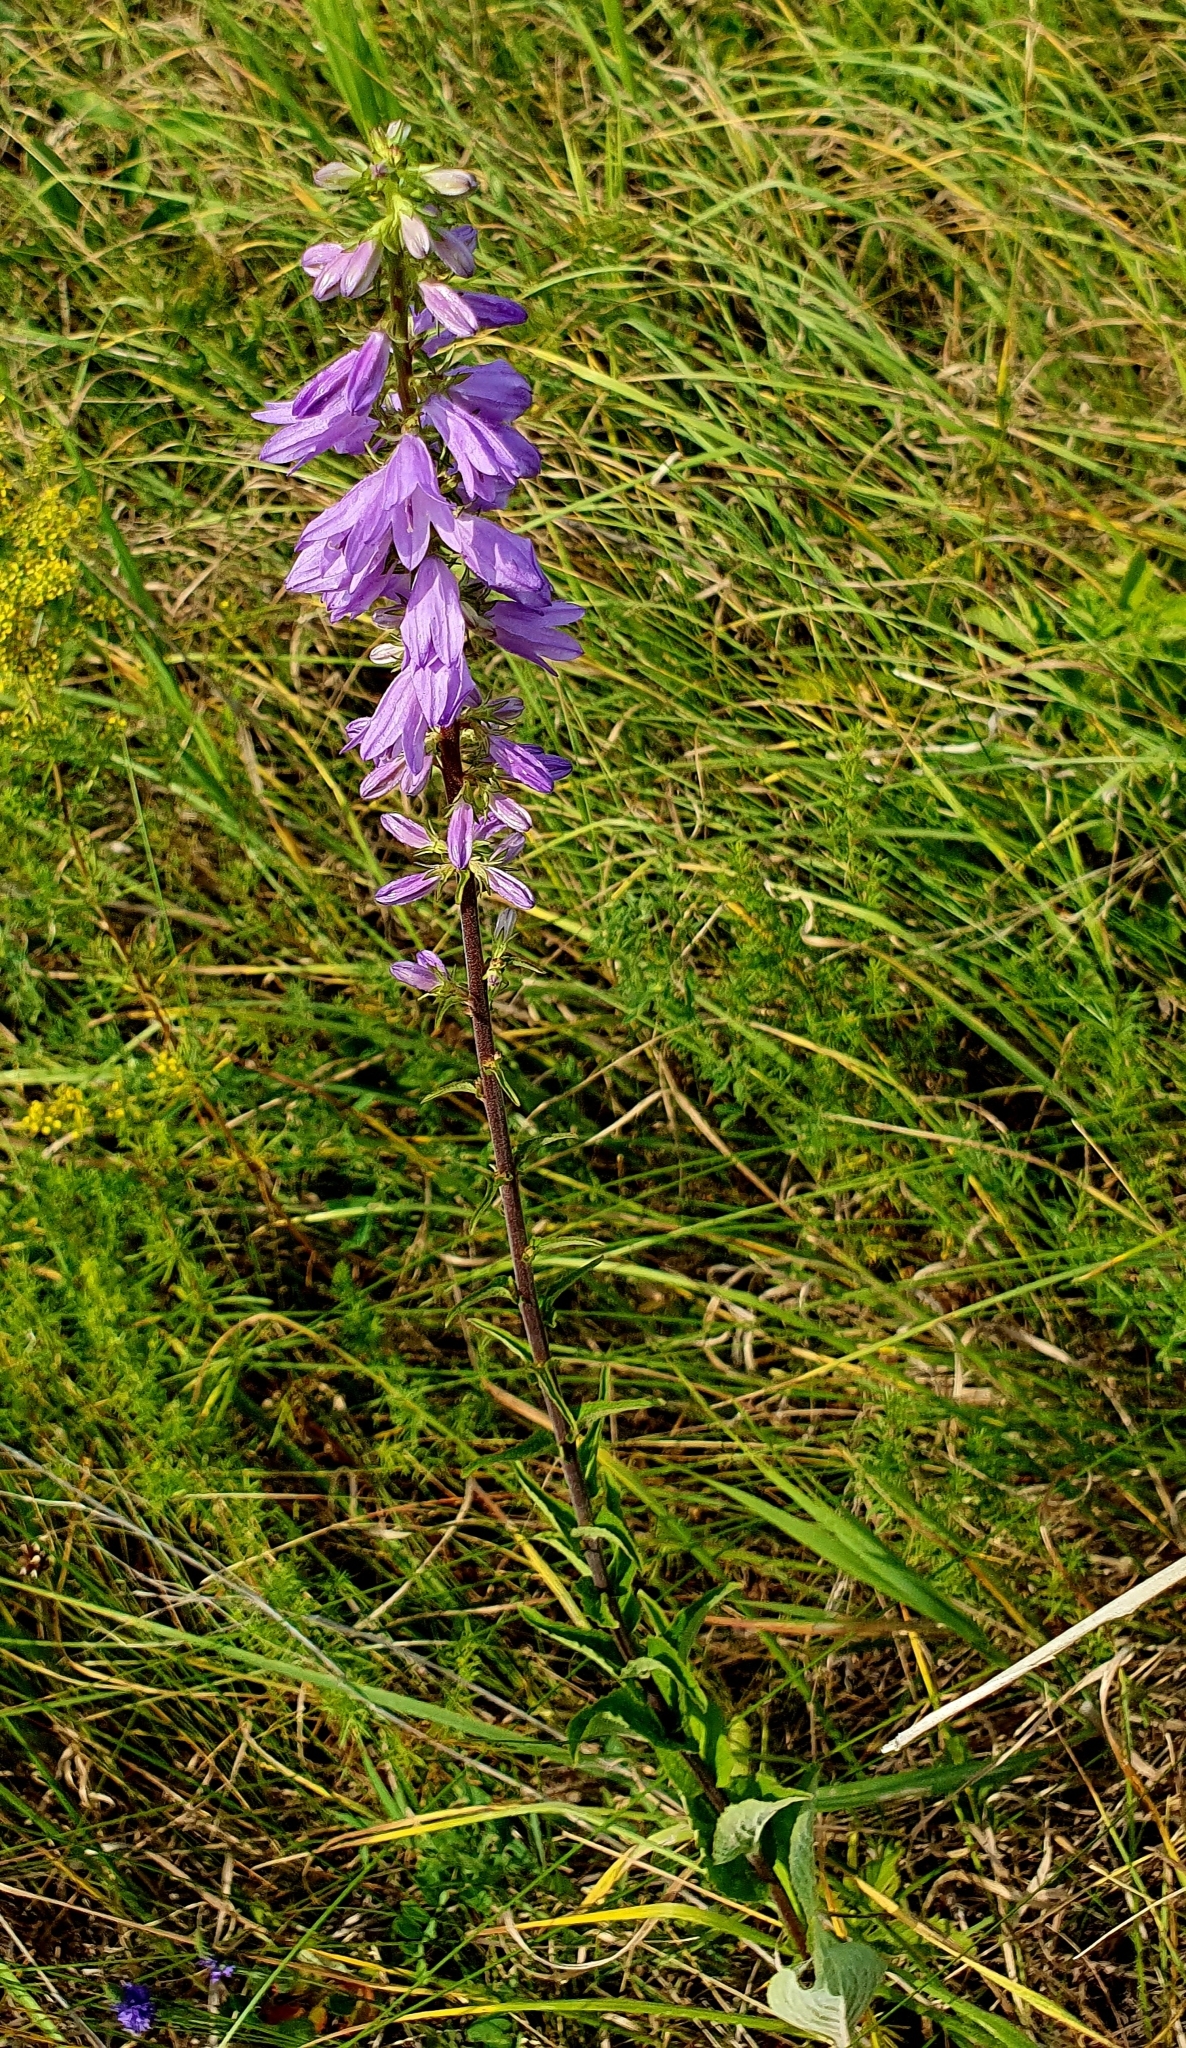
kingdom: Plantae
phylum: Tracheophyta
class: Magnoliopsida
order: Asterales
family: Campanulaceae
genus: Campanula
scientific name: Campanula bononiensis
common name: Pale bellflower
